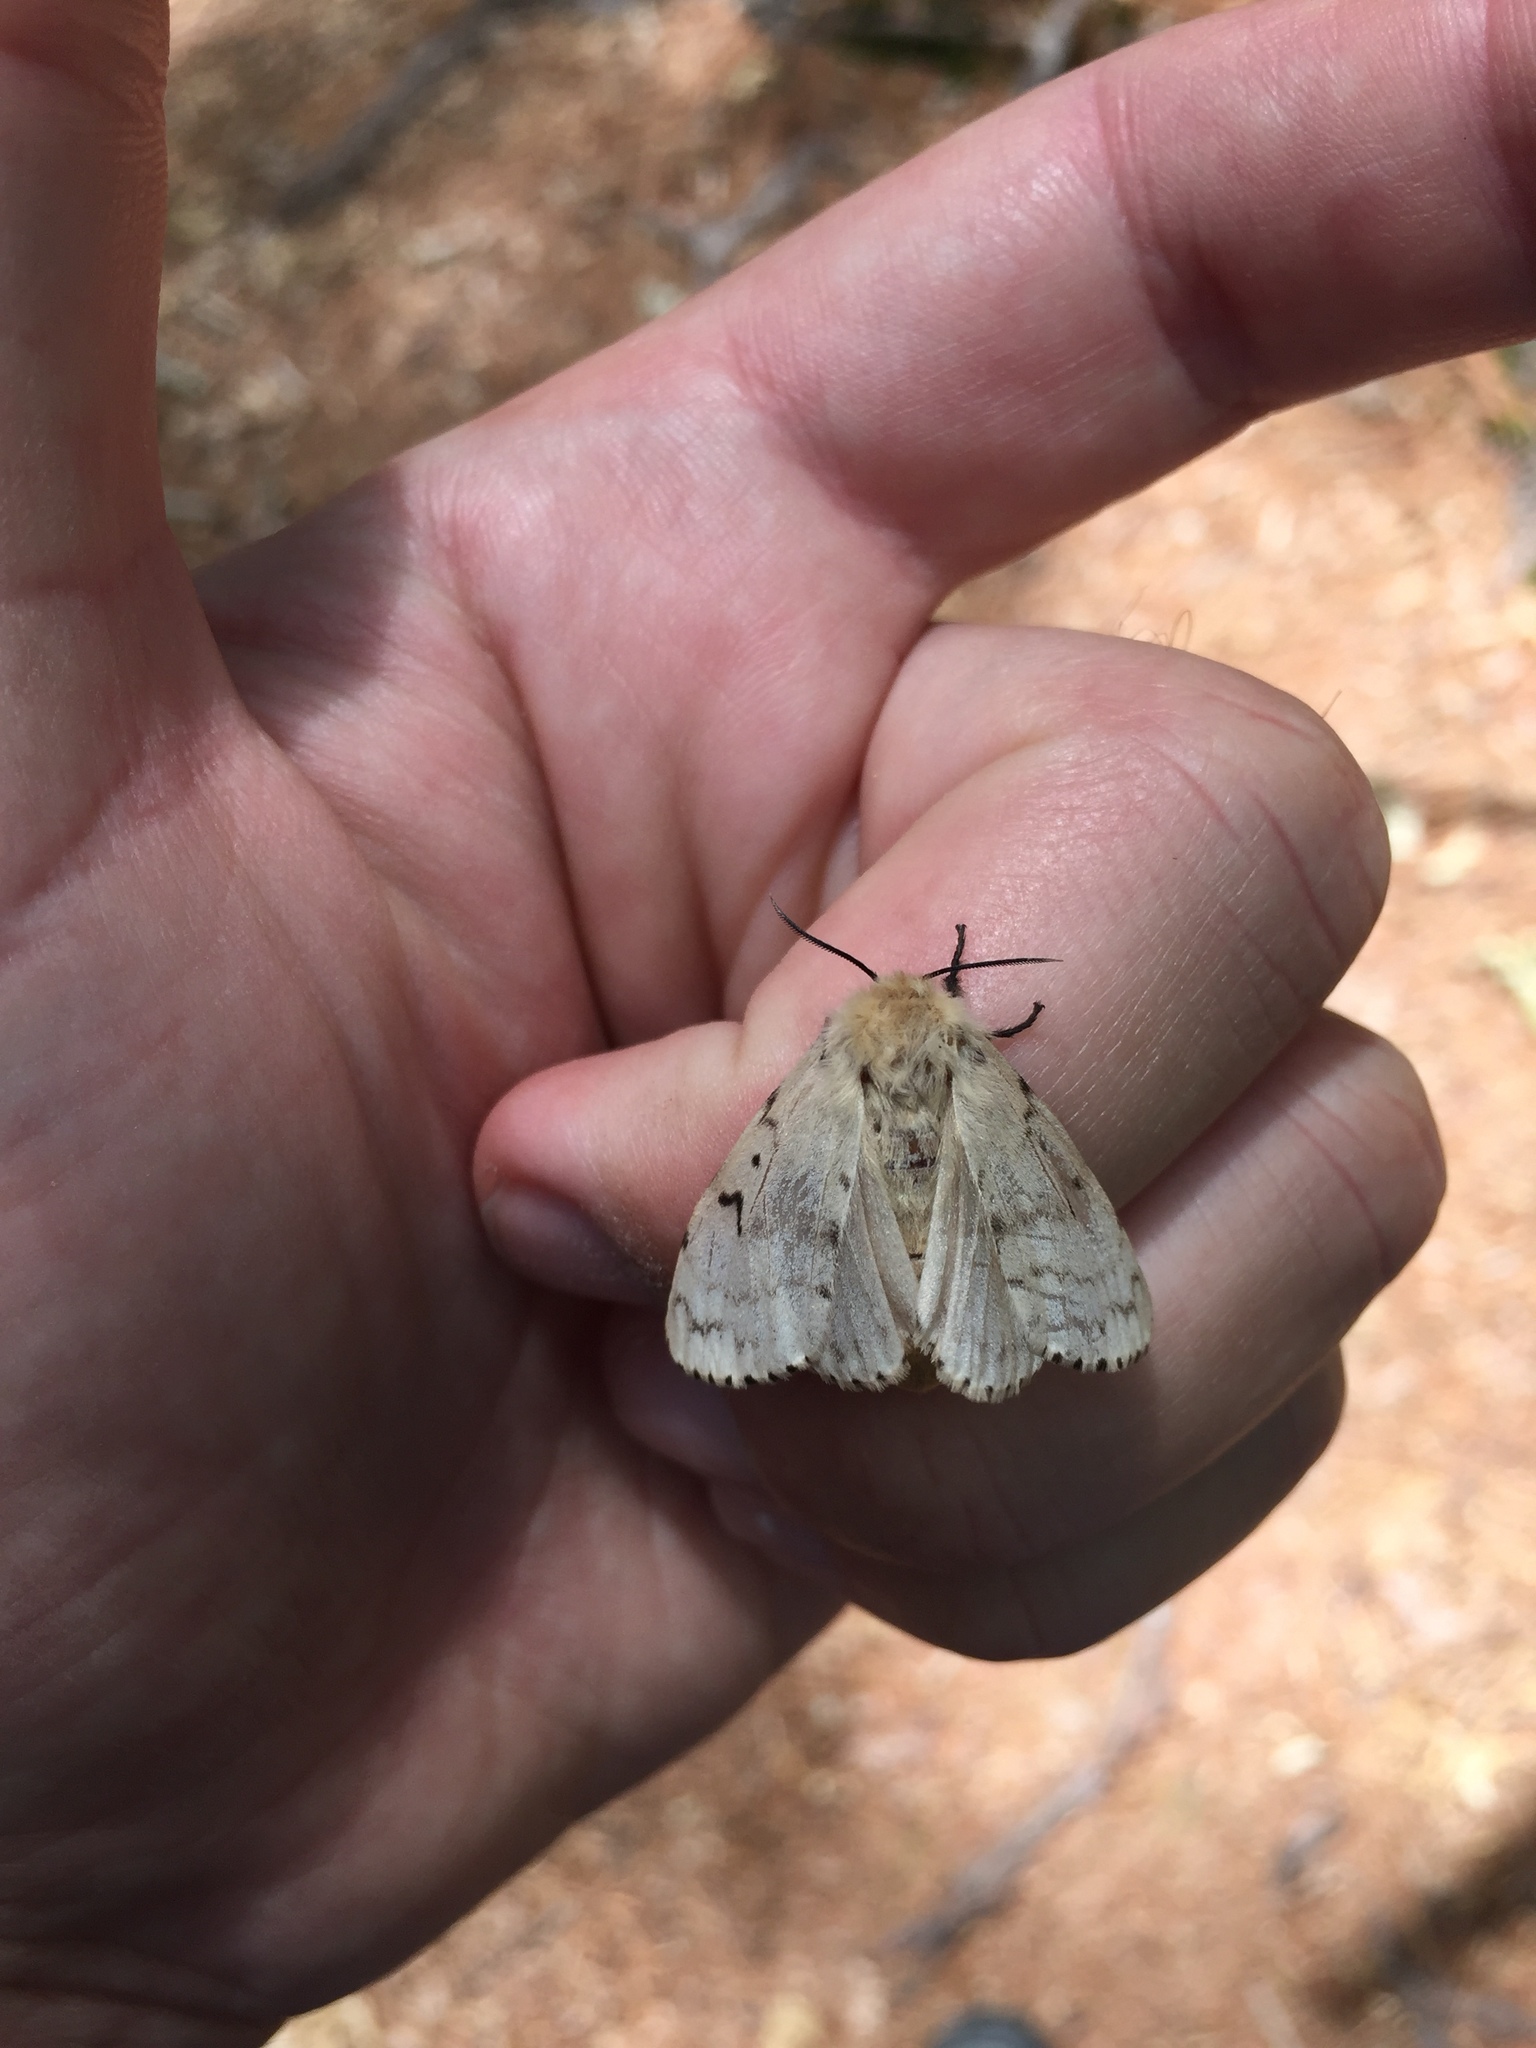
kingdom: Animalia
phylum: Arthropoda
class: Insecta
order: Lepidoptera
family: Erebidae
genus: Lymantria
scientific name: Lymantria dispar
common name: Gypsy moth
